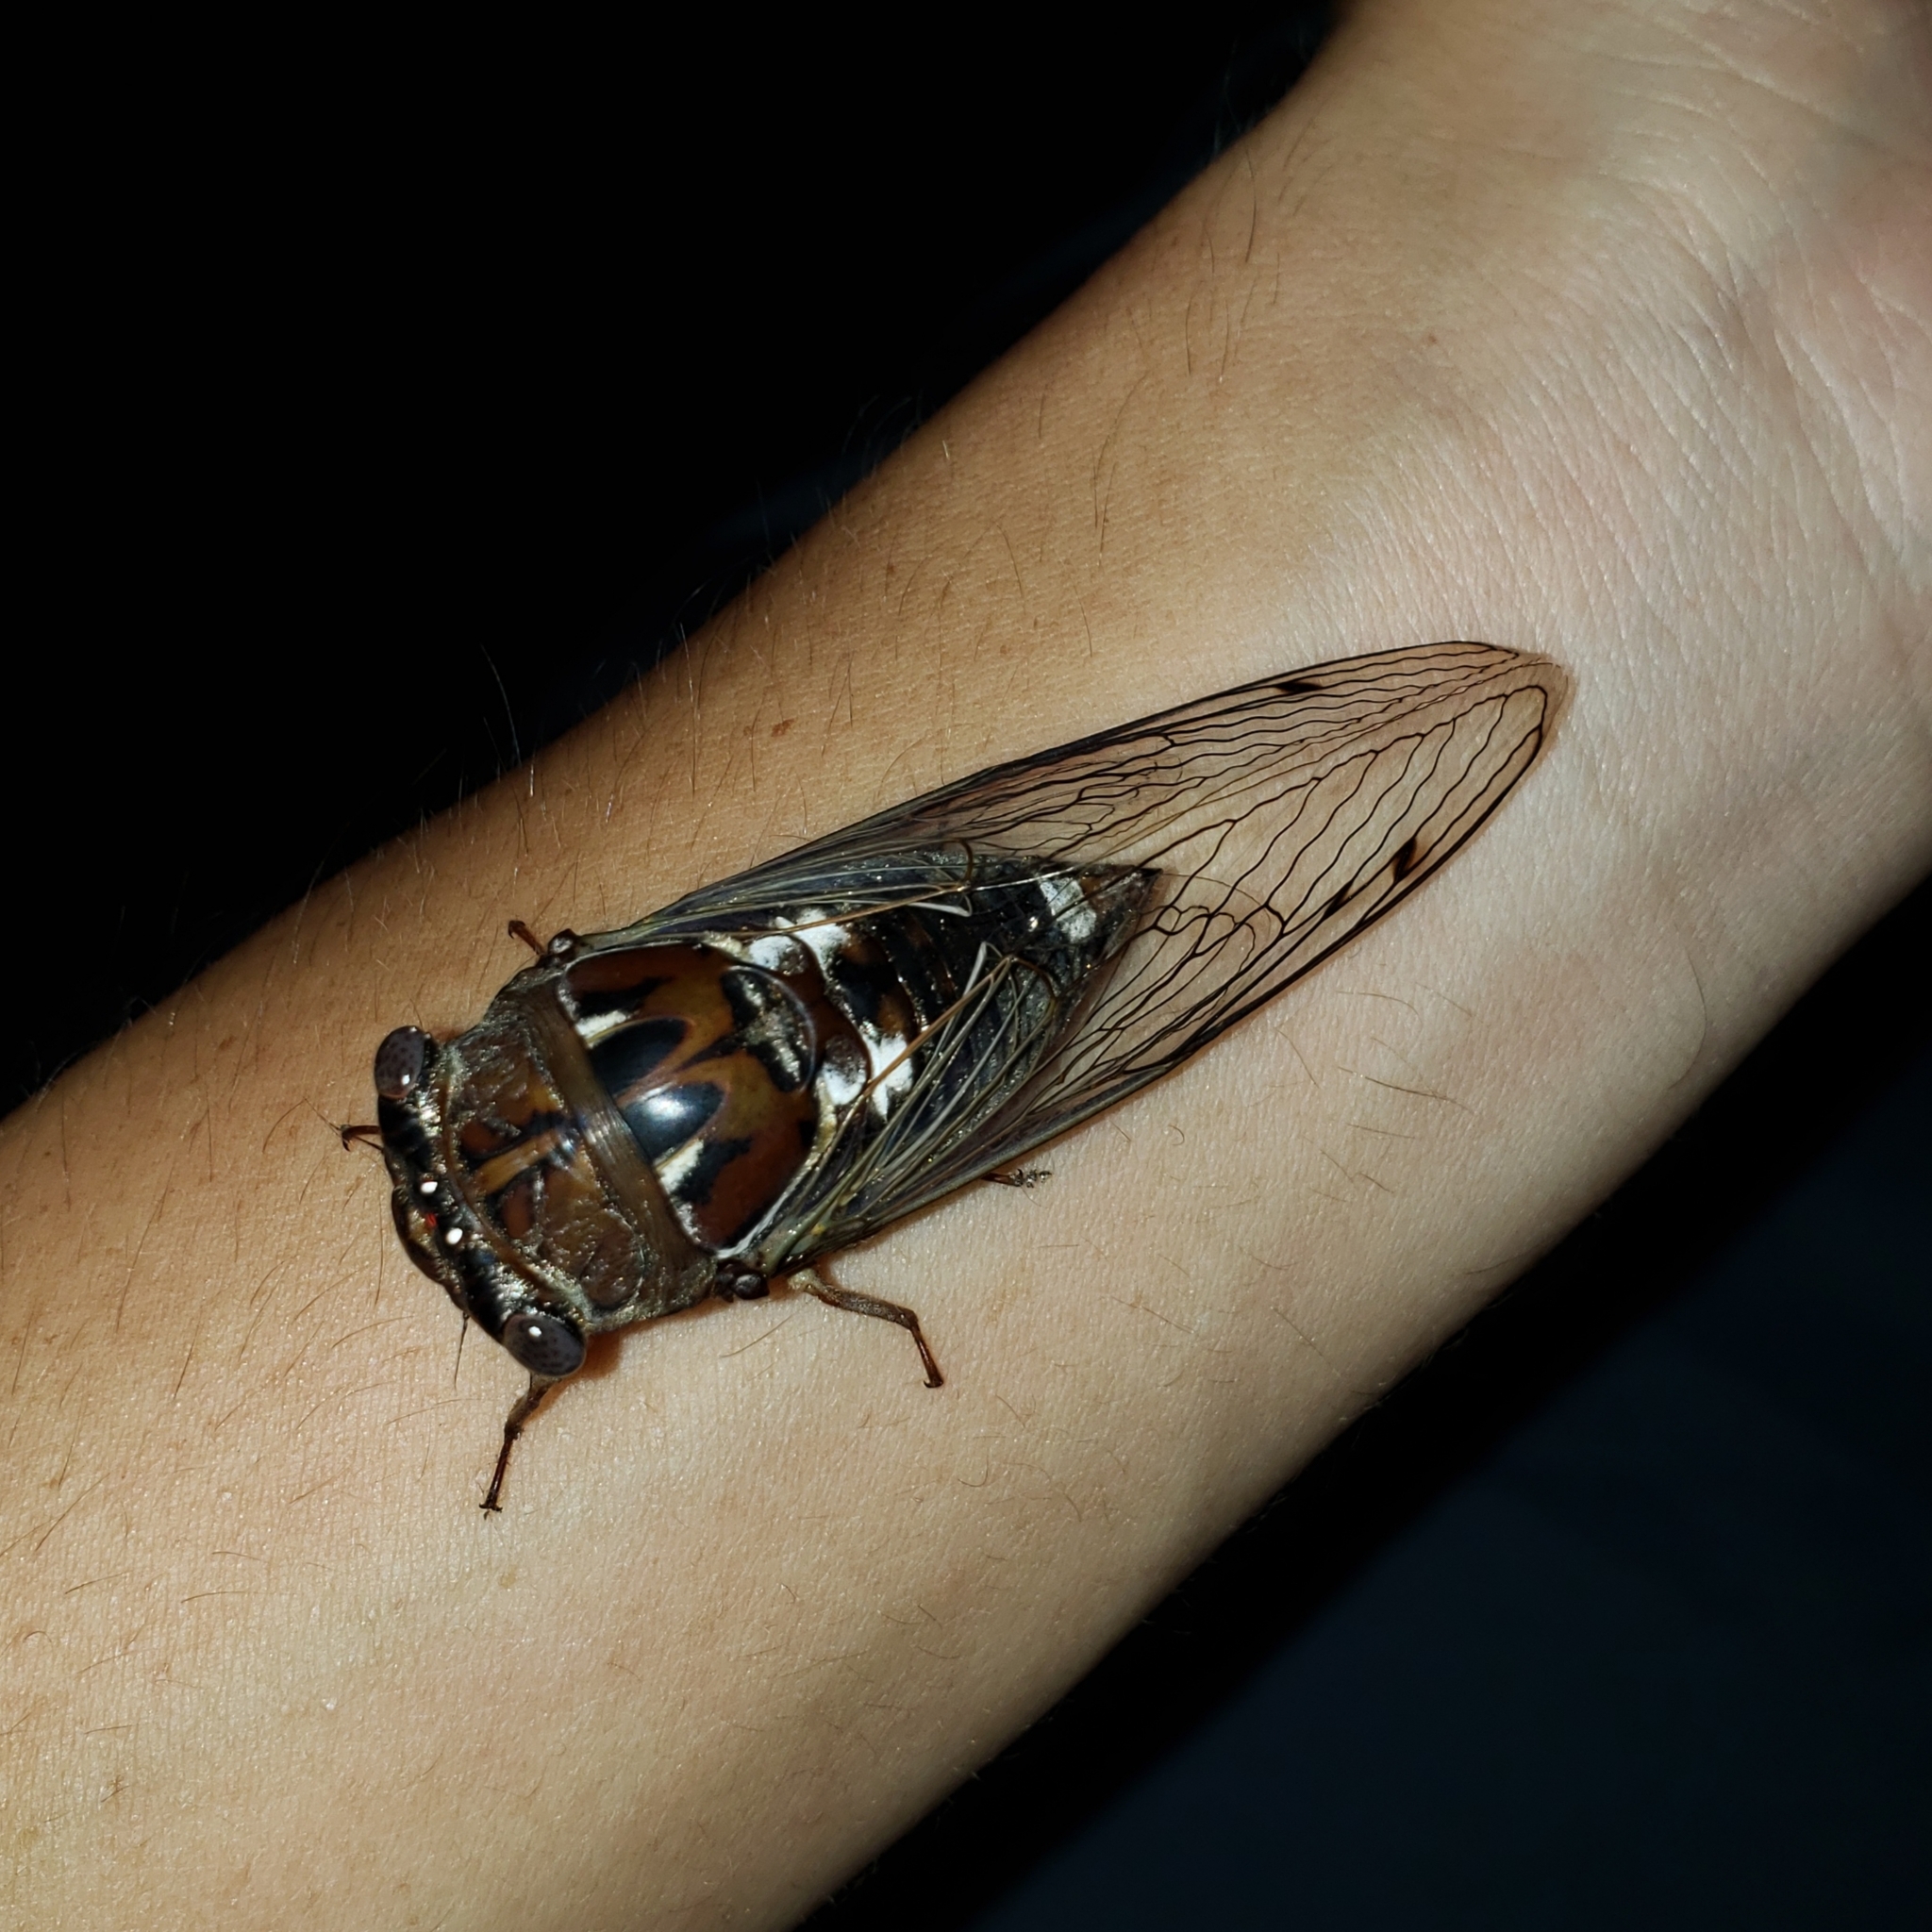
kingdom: Animalia
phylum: Arthropoda
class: Insecta
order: Hemiptera
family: Cicadidae
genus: Megatibicen
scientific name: Megatibicen resonans
